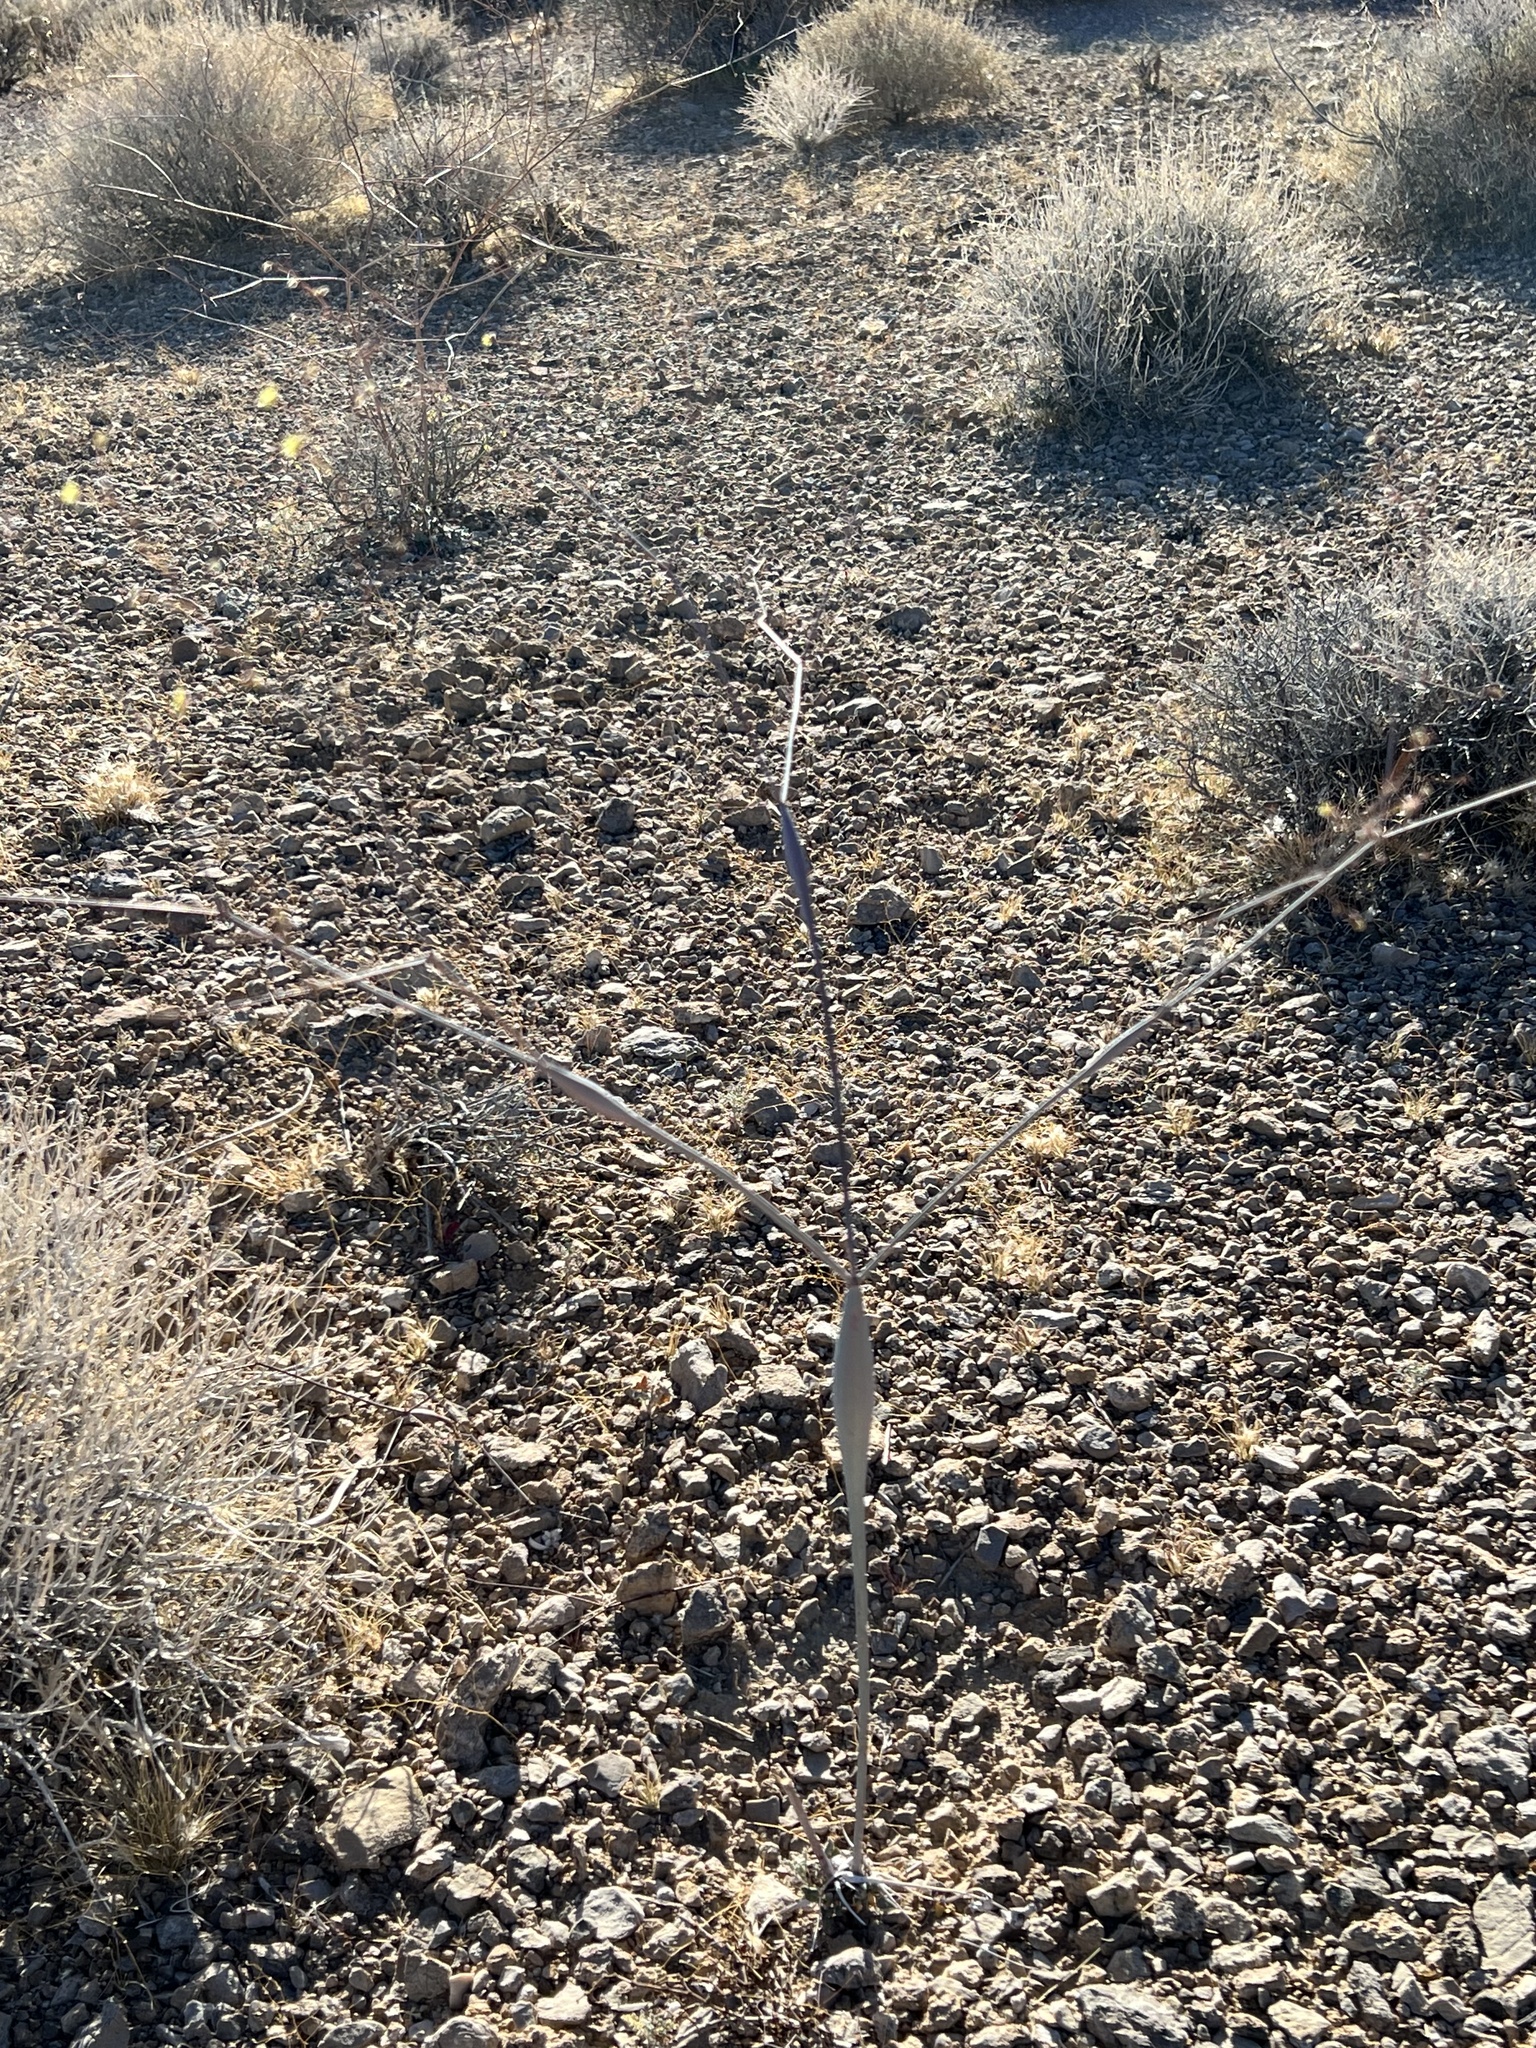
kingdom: Plantae
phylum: Tracheophyta
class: Magnoliopsida
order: Caryophyllales
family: Polygonaceae
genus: Eriogonum
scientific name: Eriogonum inflatum
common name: Desert trumpet
